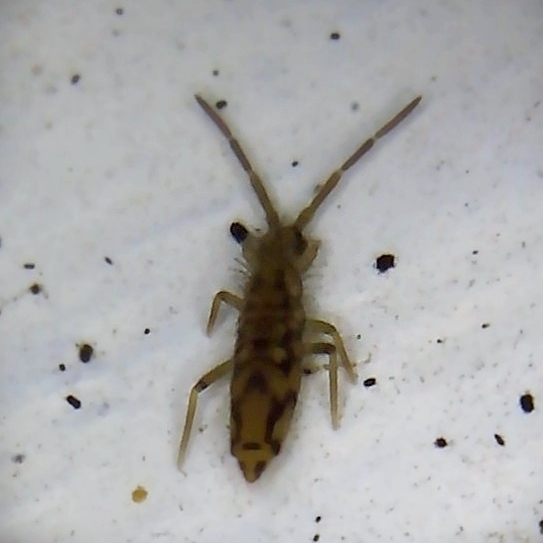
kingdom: Animalia
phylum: Arthropoda
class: Collembola
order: Entomobryomorpha
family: Entomobryidae
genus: Entomobrya
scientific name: Entomobrya intermedia
